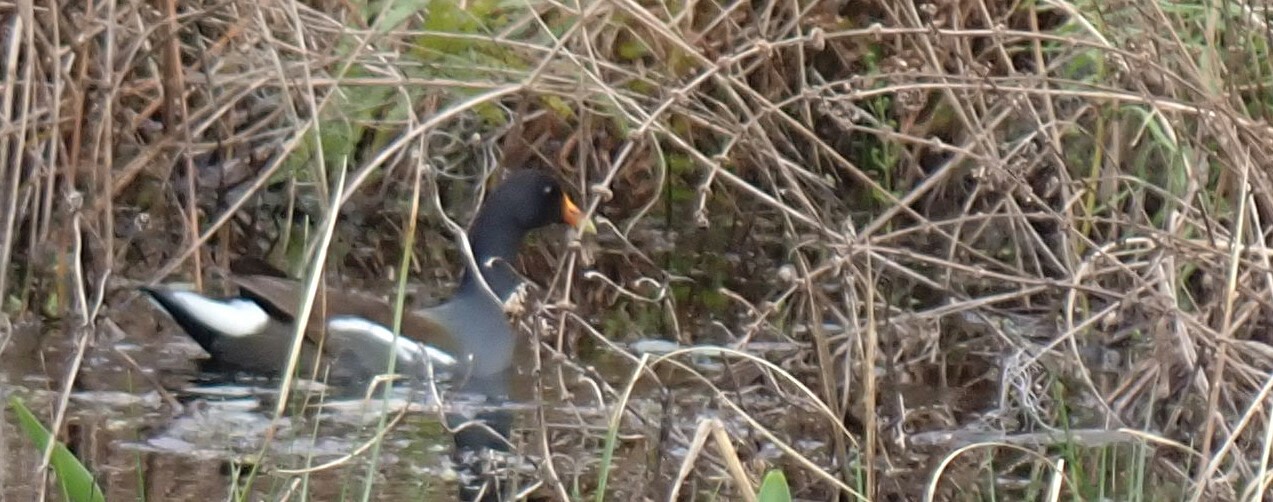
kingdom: Animalia
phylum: Chordata
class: Aves
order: Gruiformes
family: Rallidae
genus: Gallinula
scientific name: Gallinula chloropus
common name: Common moorhen
